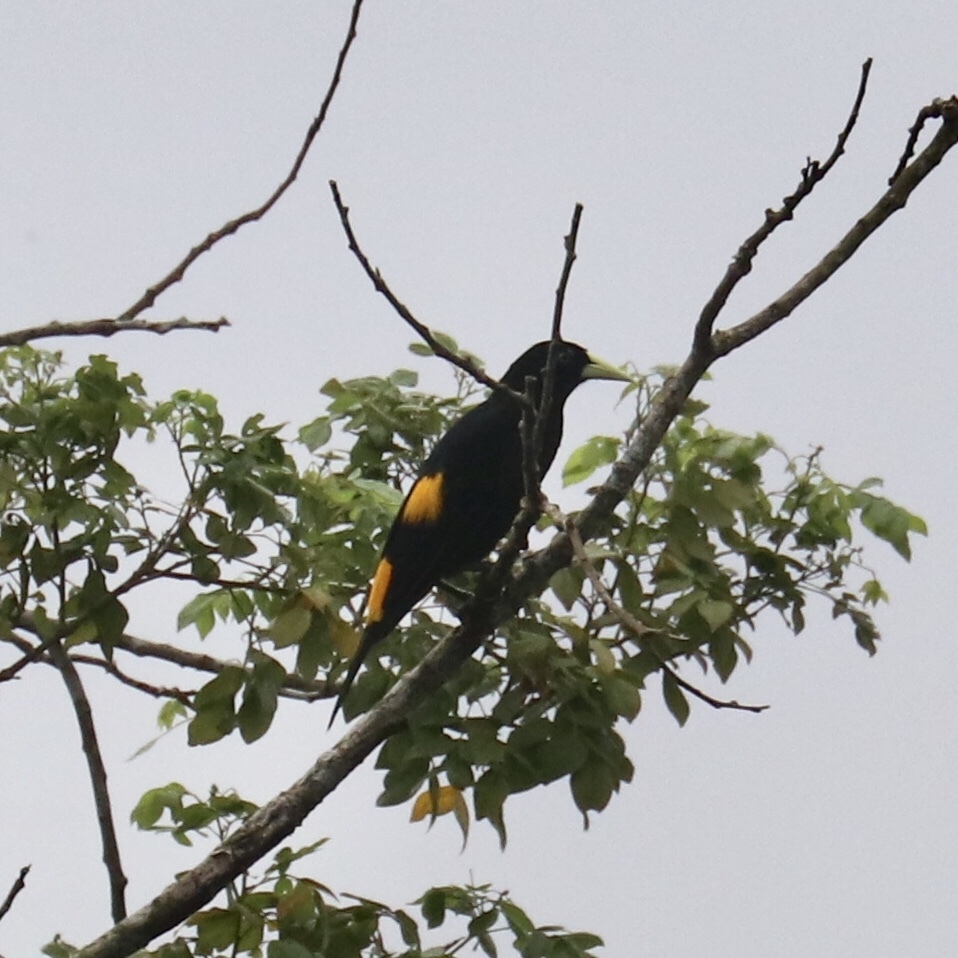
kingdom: Animalia
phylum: Chordata
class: Aves
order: Passeriformes
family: Icteridae
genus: Cacicus
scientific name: Cacicus cela
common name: Yellow-rumped cacique
